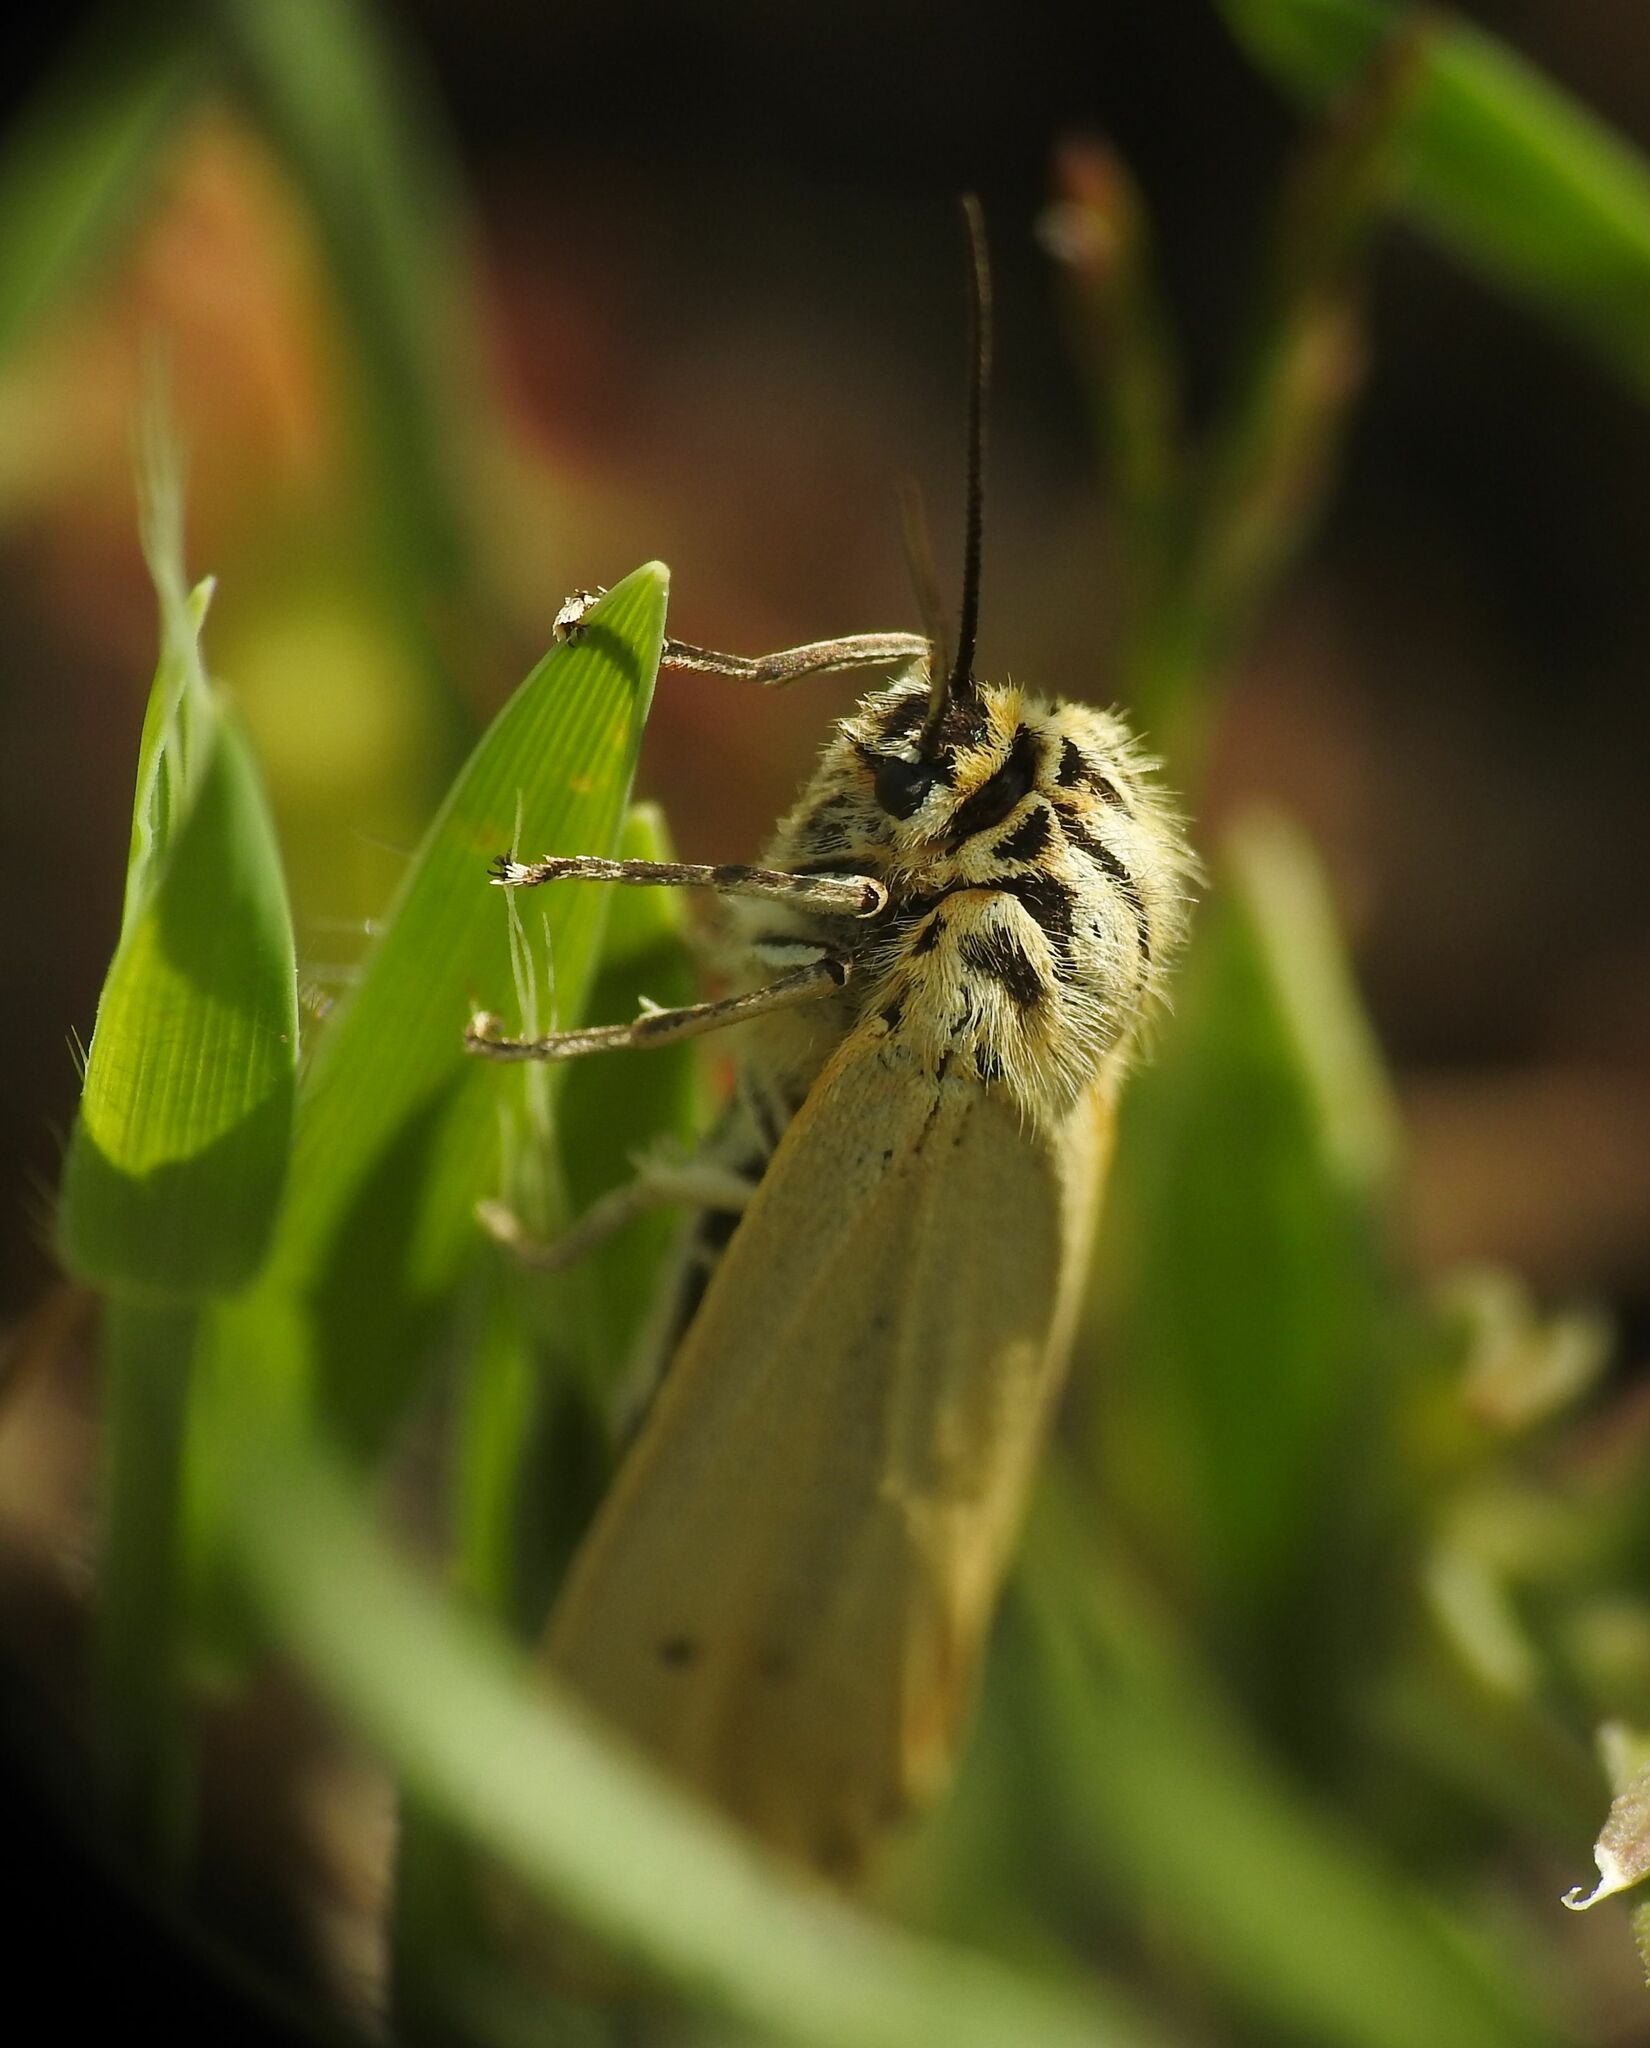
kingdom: Animalia
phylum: Arthropoda
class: Insecta
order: Lepidoptera
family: Erebidae
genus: Coscinia
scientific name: Coscinia Spiris striata
